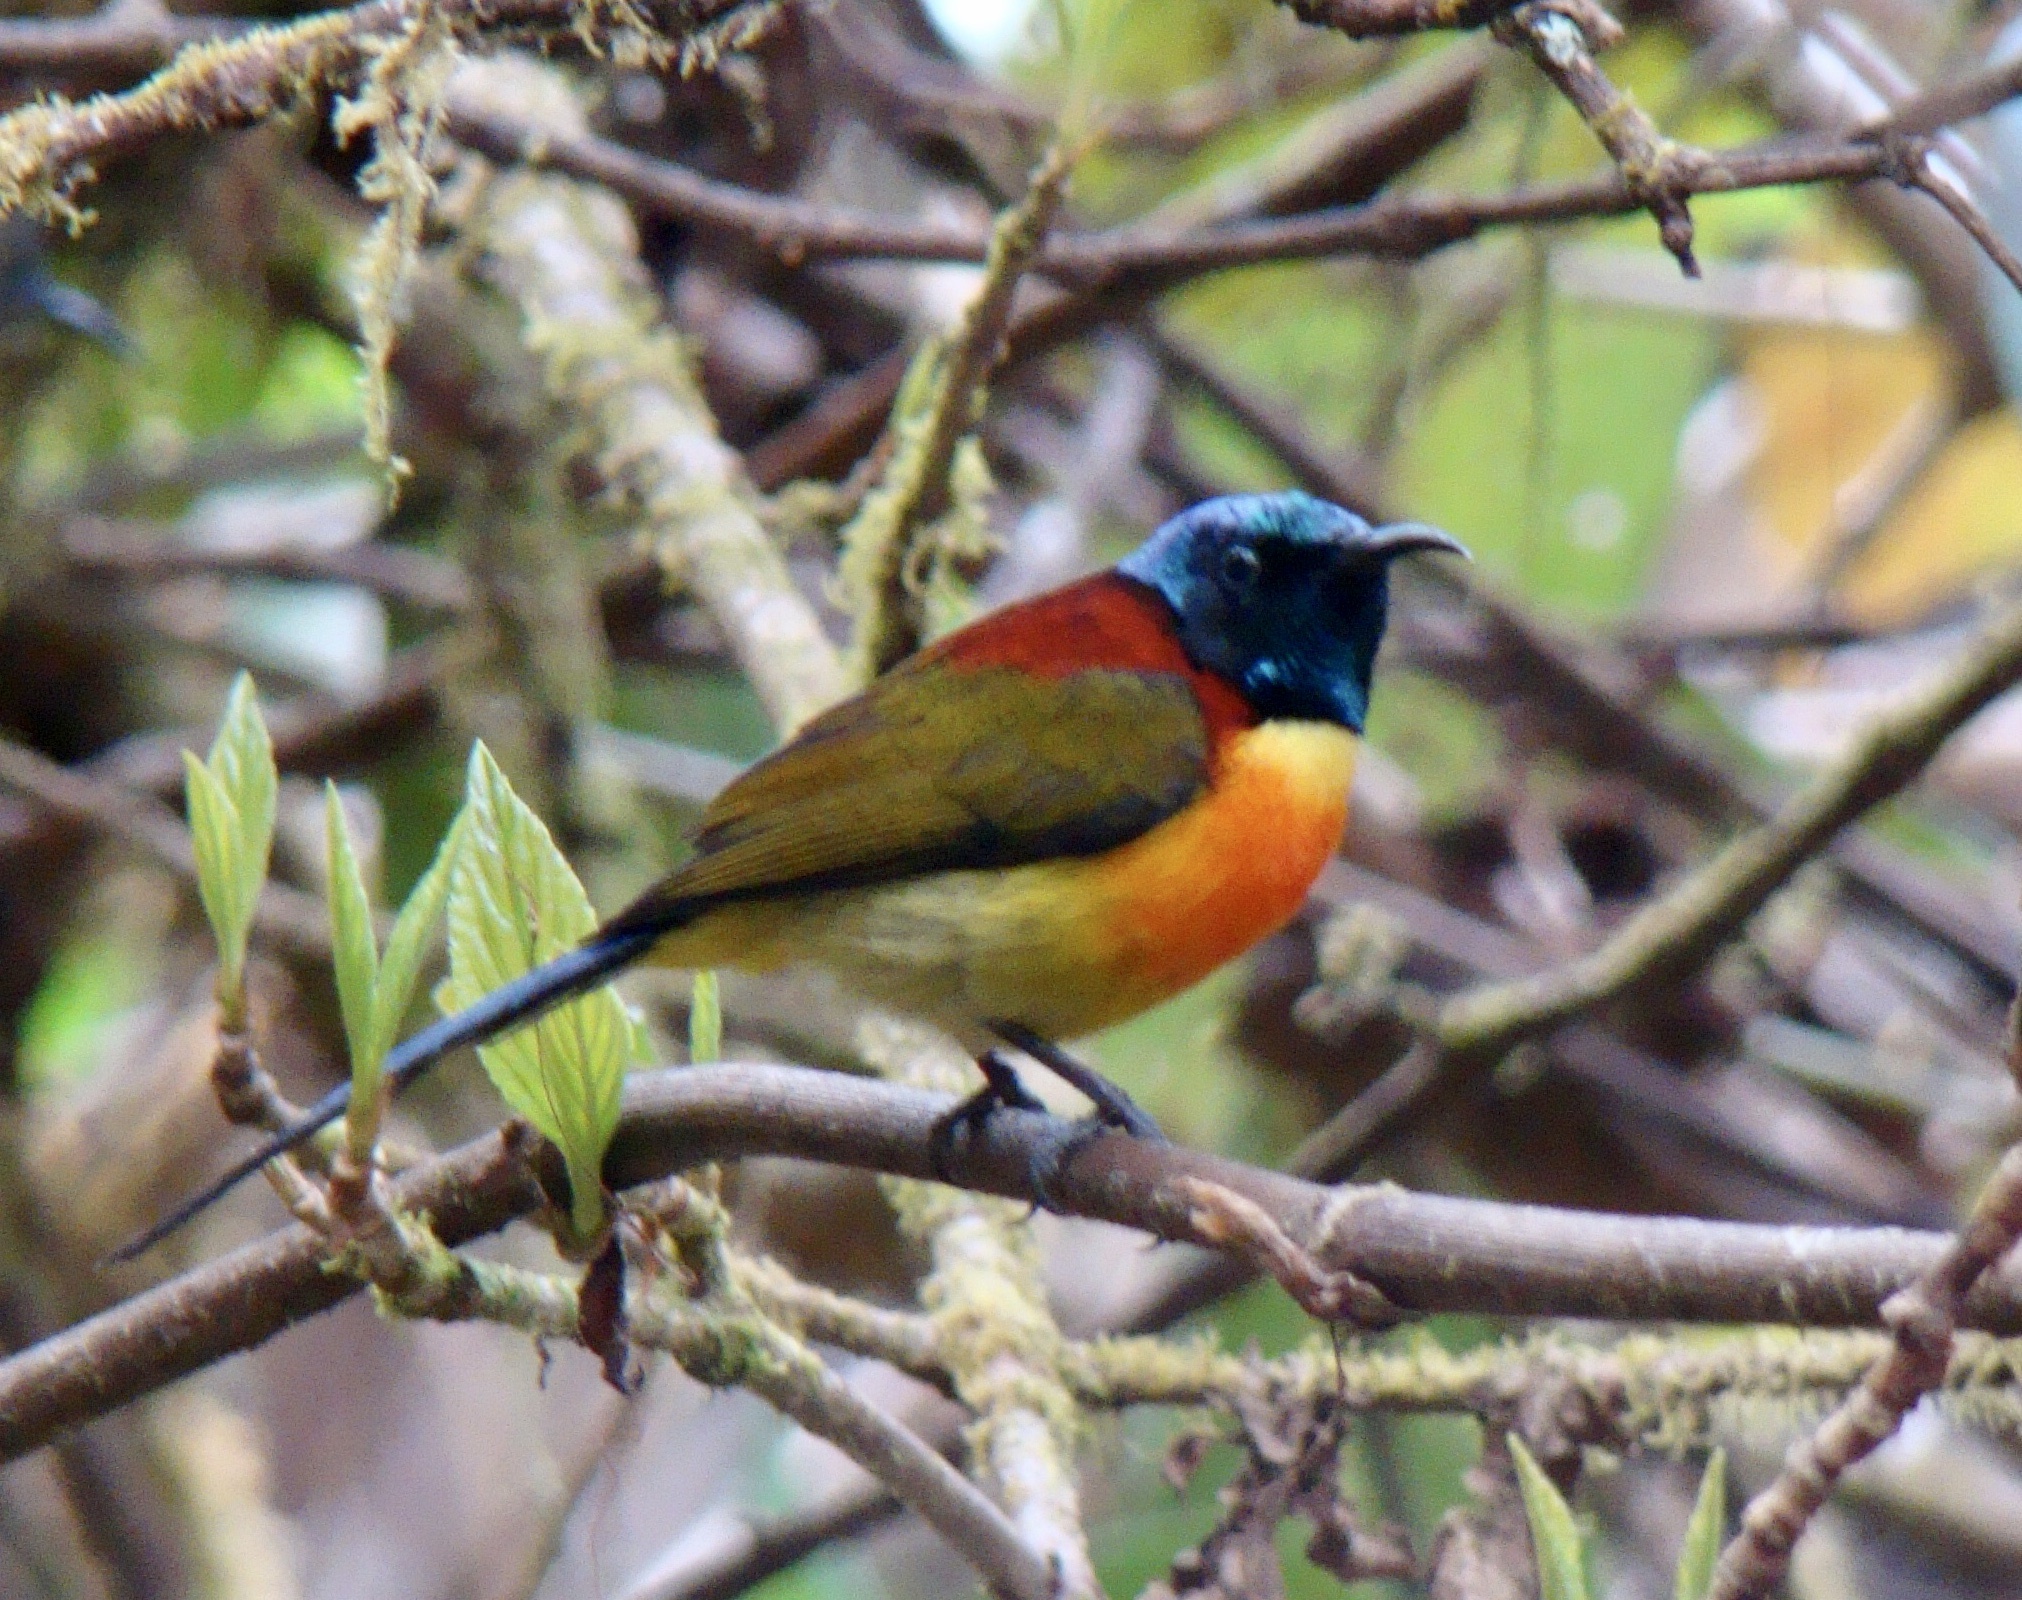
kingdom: Animalia
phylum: Chordata
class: Aves
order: Passeriformes
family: Nectariniidae
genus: Aethopyga
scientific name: Aethopyga nipalensis
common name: Green-tailed sunbird
